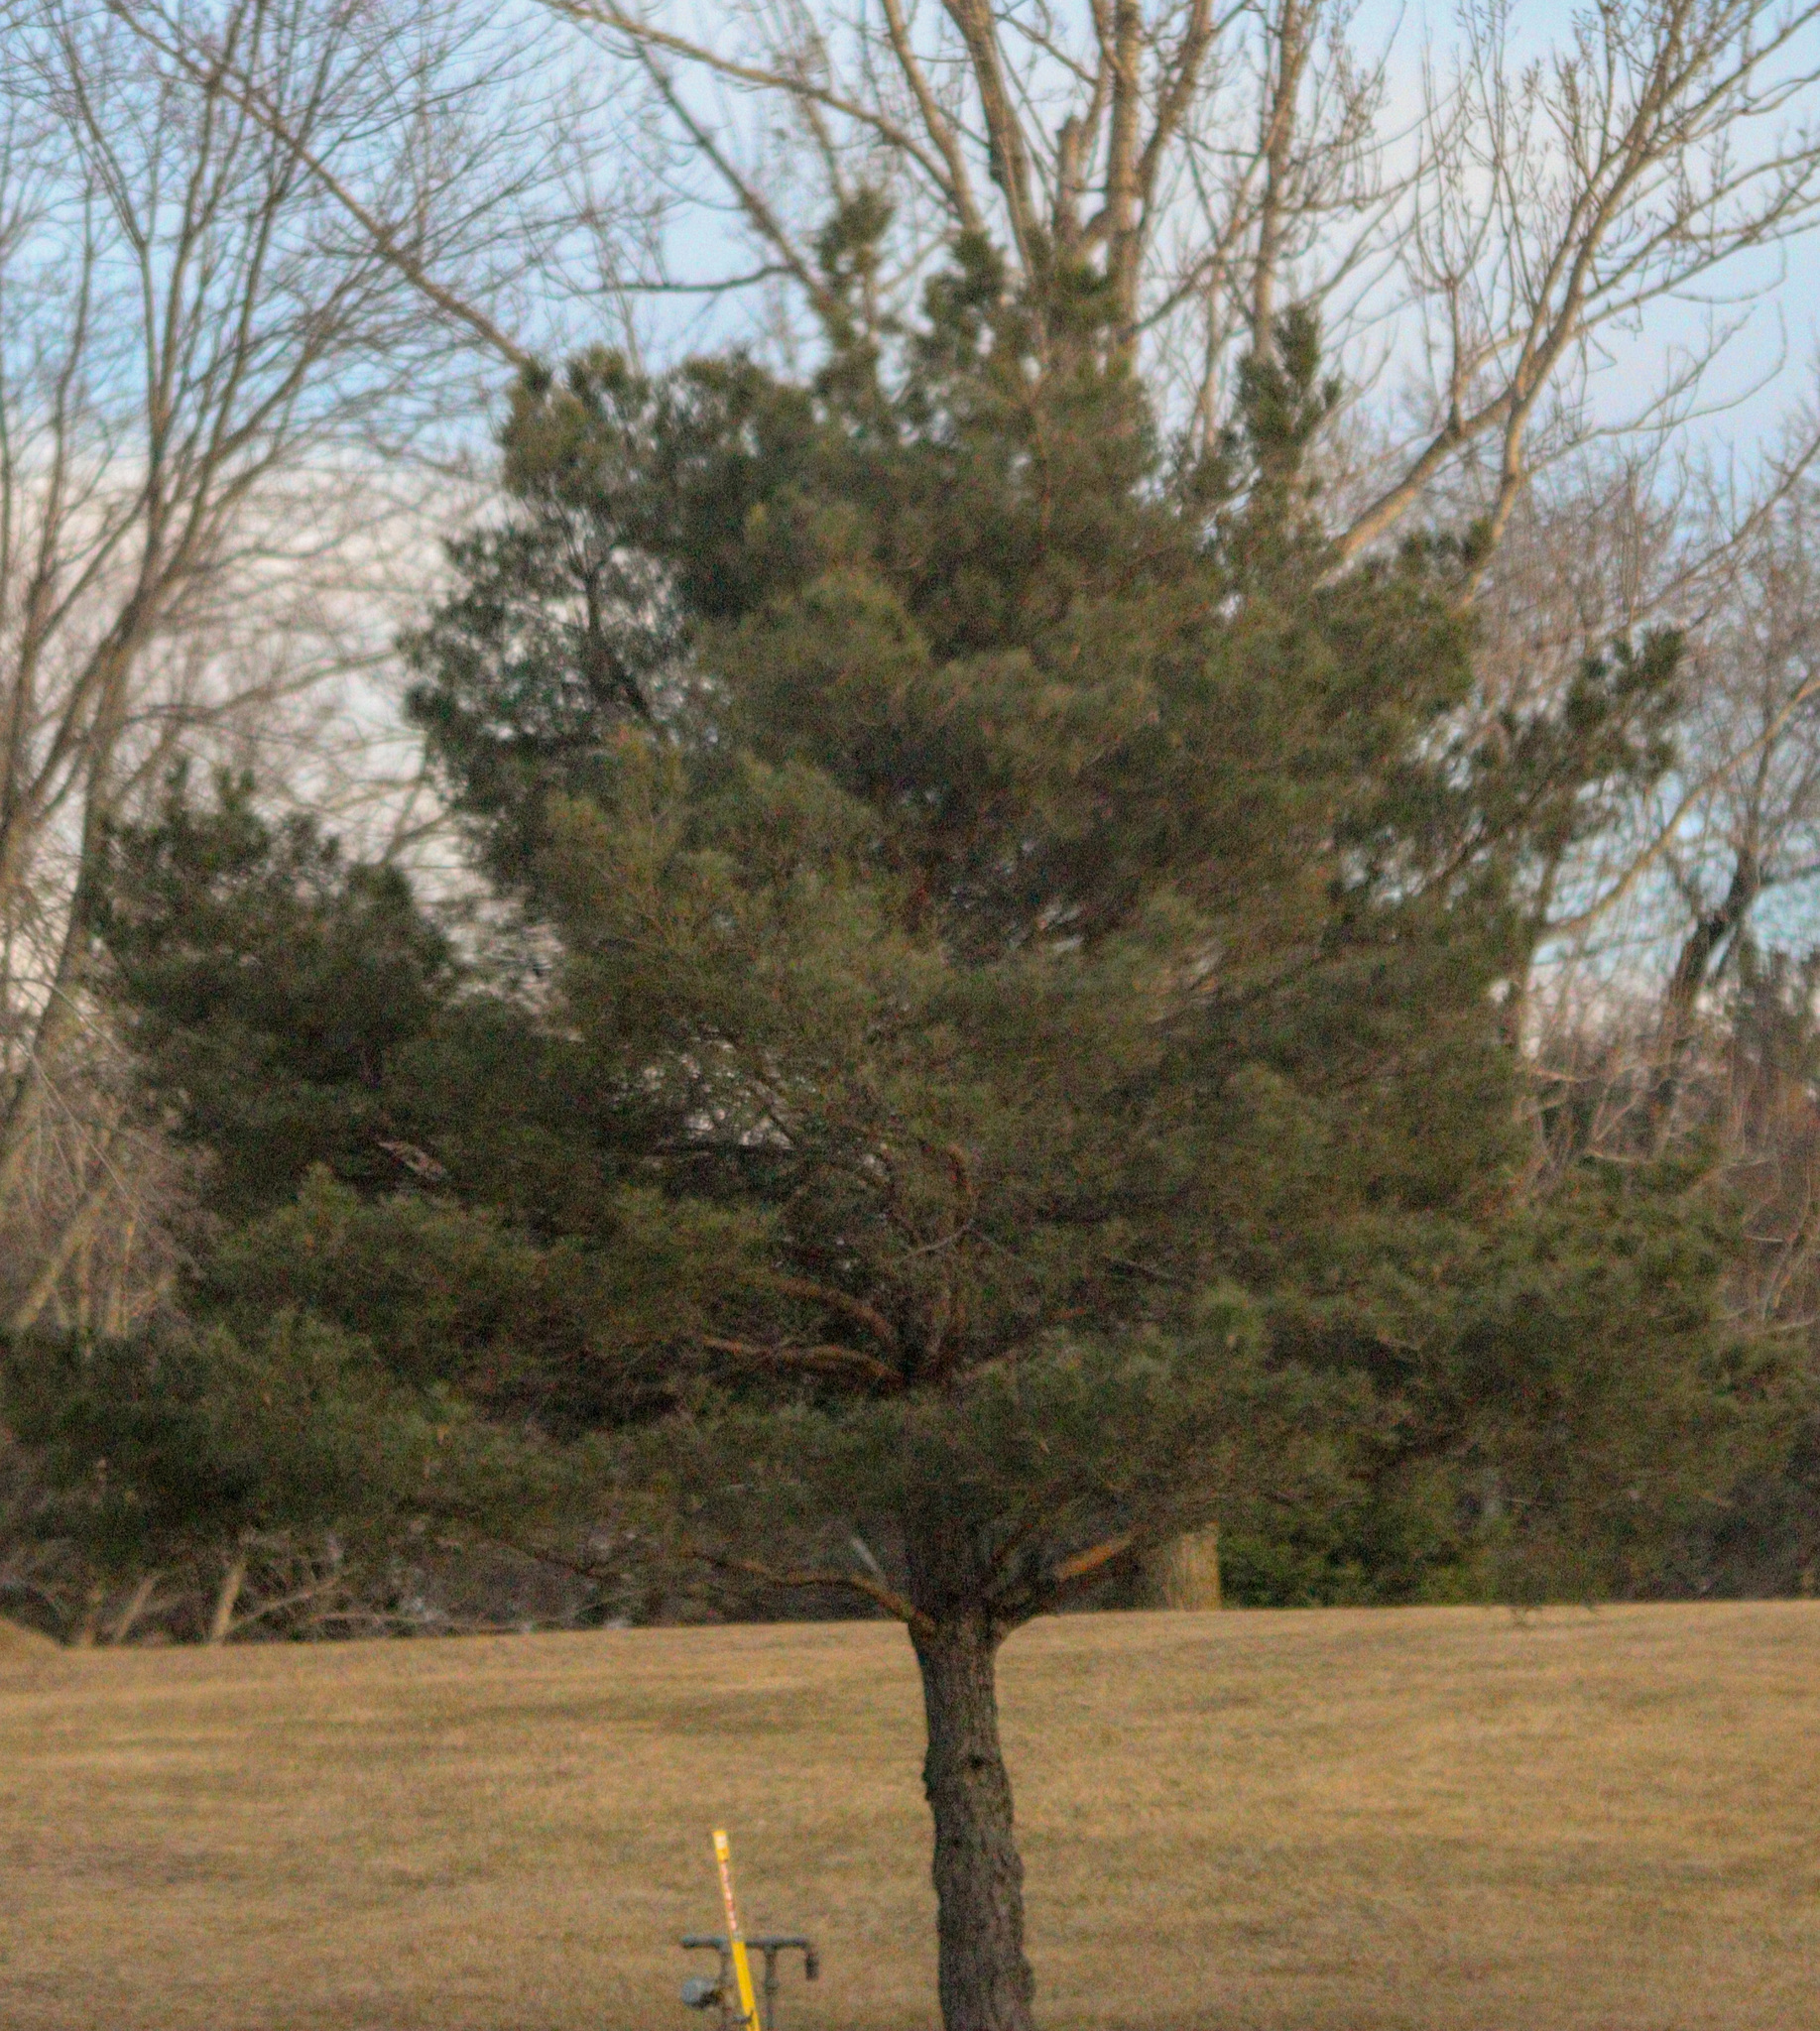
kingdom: Plantae
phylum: Tracheophyta
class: Pinopsida
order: Pinales
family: Pinaceae
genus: Pinus
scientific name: Pinus sylvestris
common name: Scots pine
